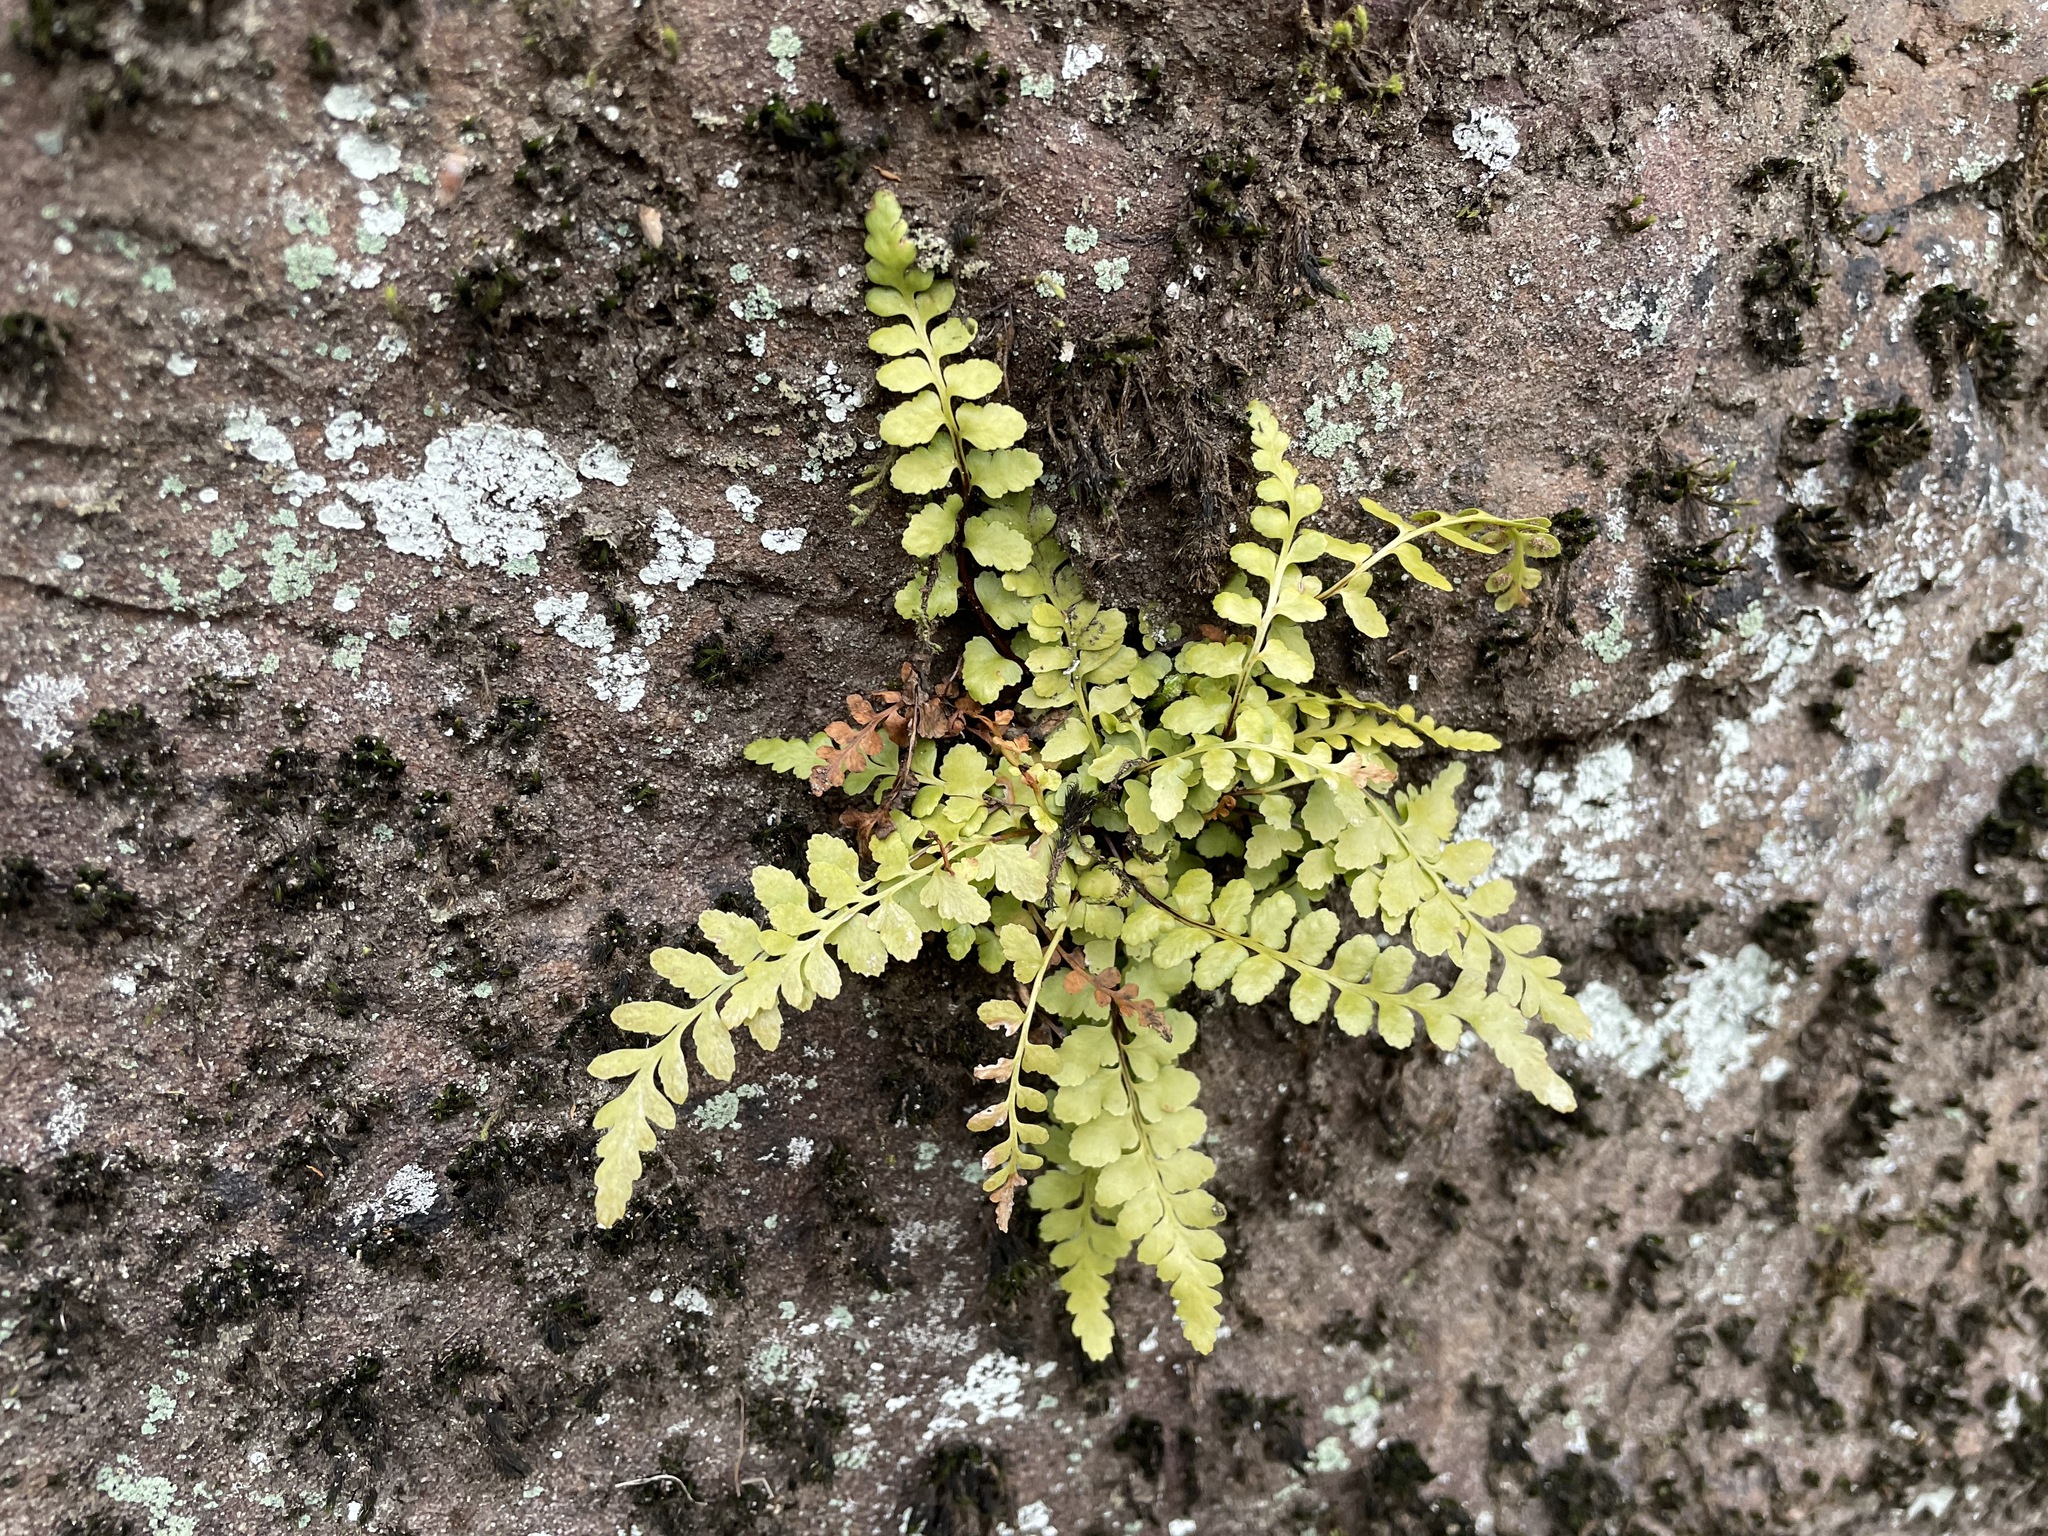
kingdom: Plantae
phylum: Tracheophyta
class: Polypodiopsida
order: Polypodiales
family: Aspleniaceae
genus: Asplenium
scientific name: Asplenium bradleyi
